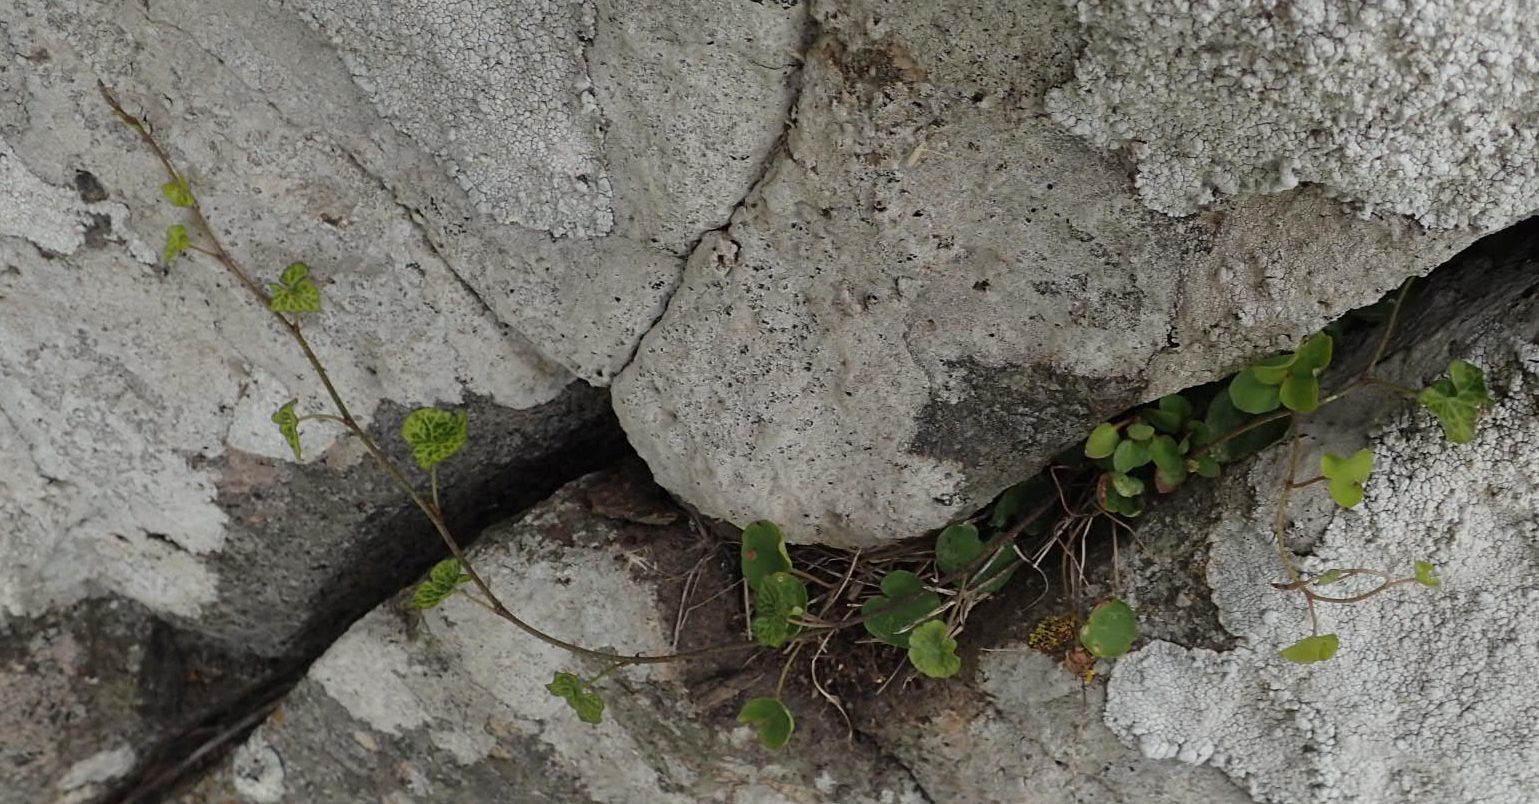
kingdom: Plantae
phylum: Tracheophyta
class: Magnoliopsida
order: Solanales
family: Convolvulaceae
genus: Calystegia
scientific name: Calystegia soldanella
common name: Sea bindweed
